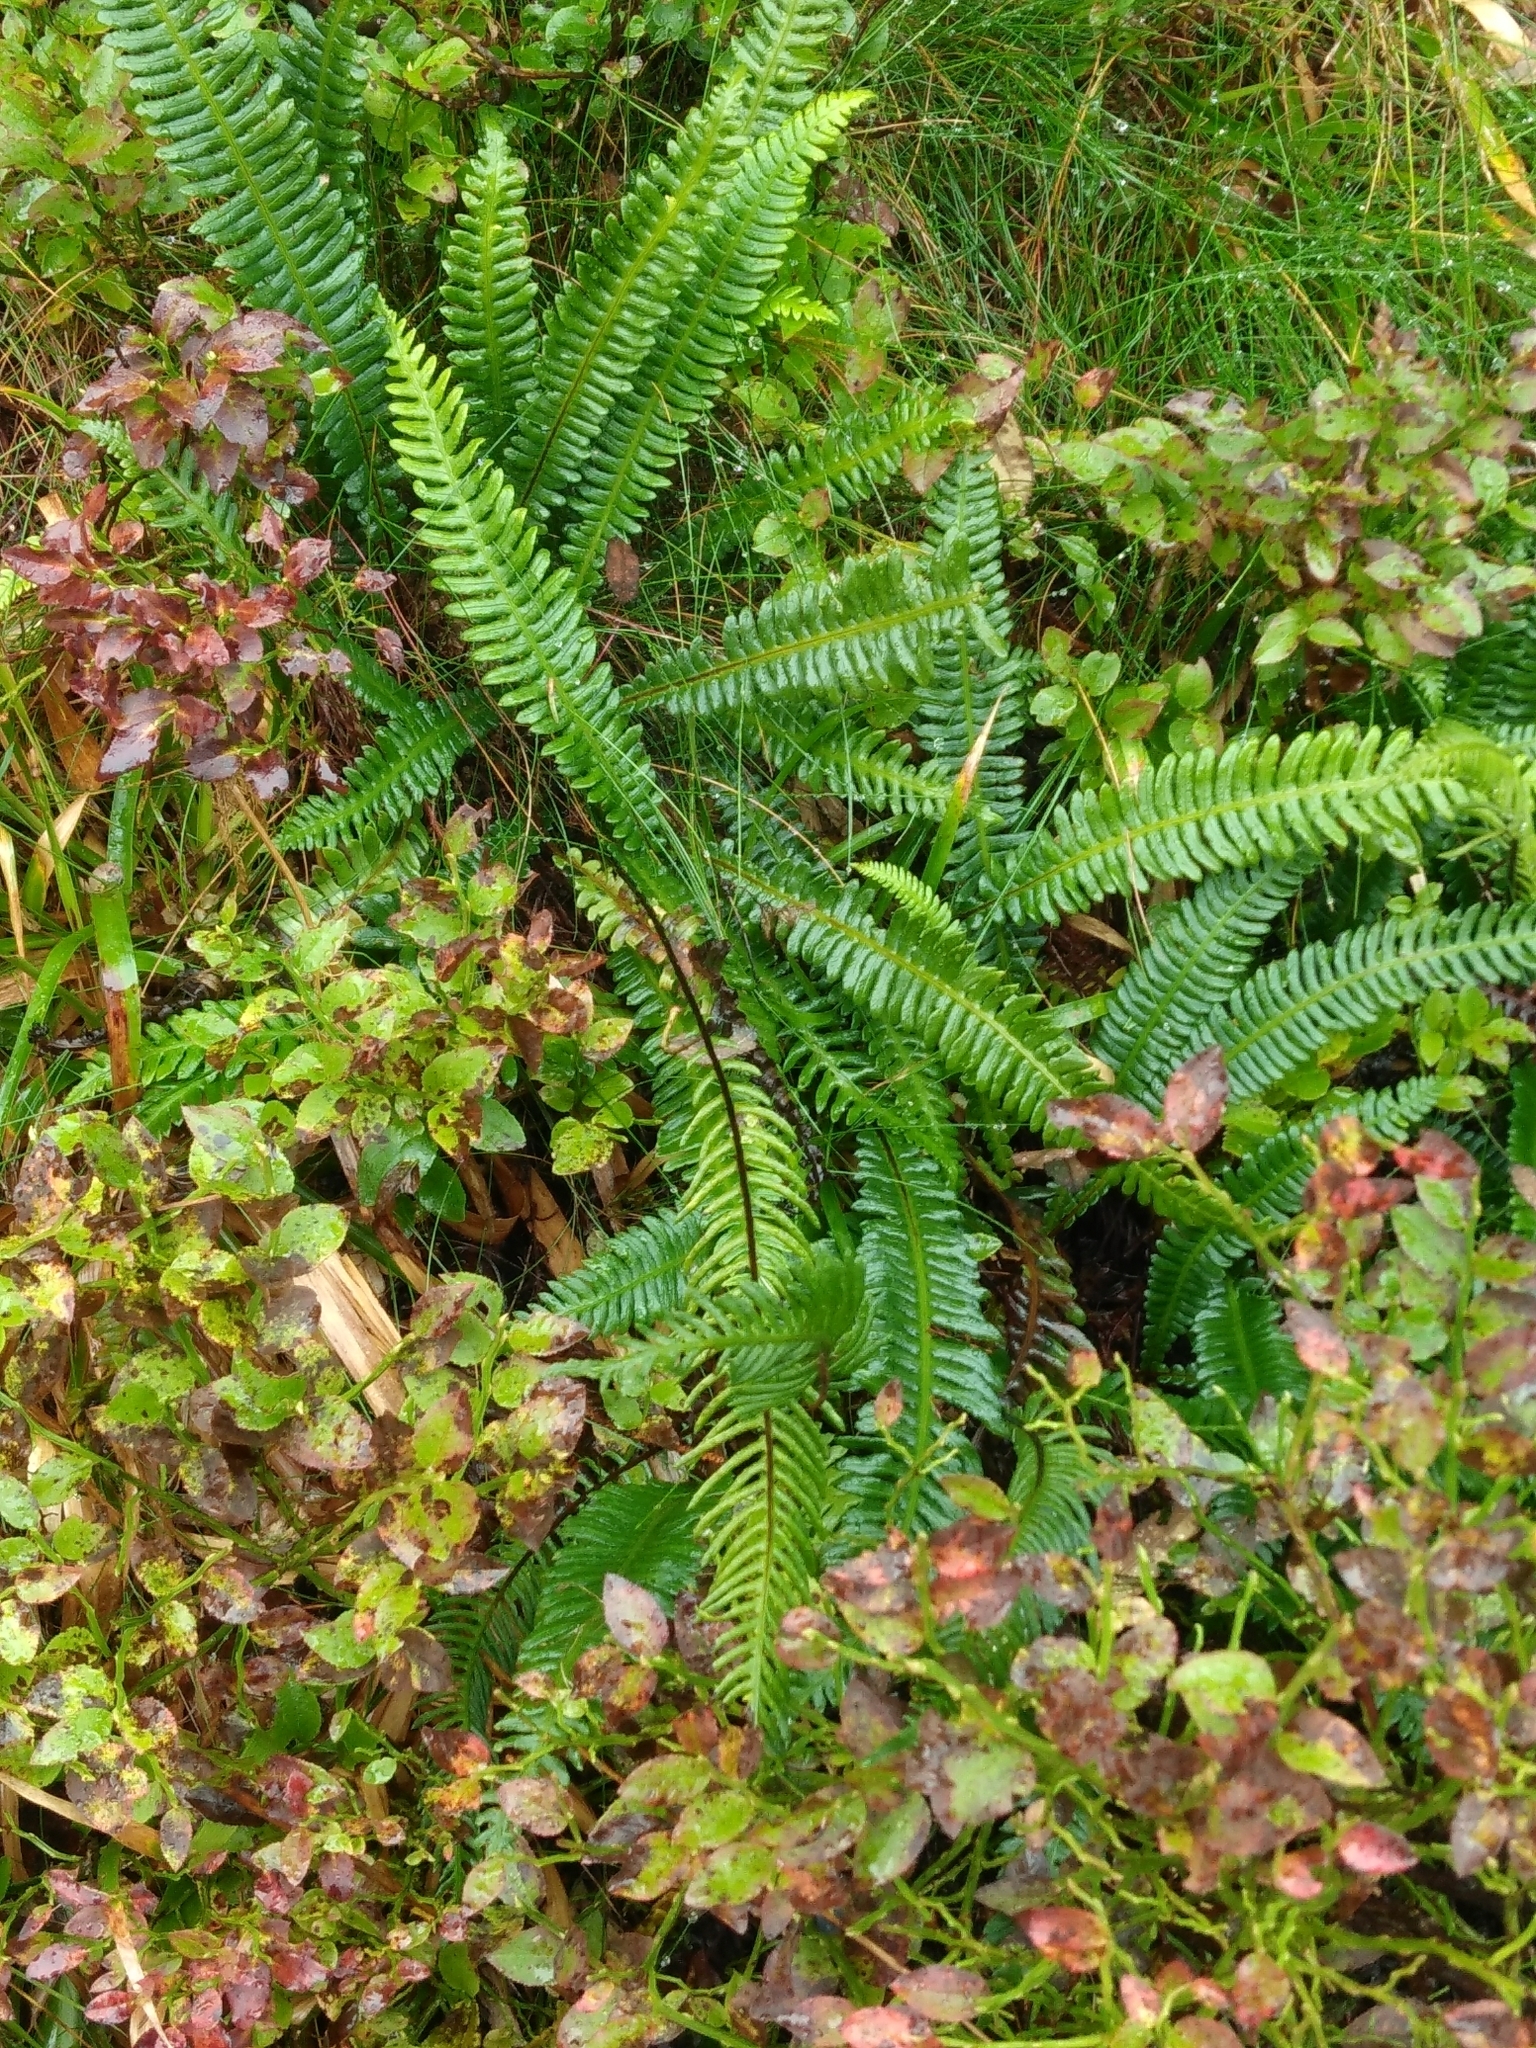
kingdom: Plantae
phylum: Tracheophyta
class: Polypodiopsida
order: Polypodiales
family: Blechnaceae
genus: Struthiopteris
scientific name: Struthiopteris spicant
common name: Deer fern
